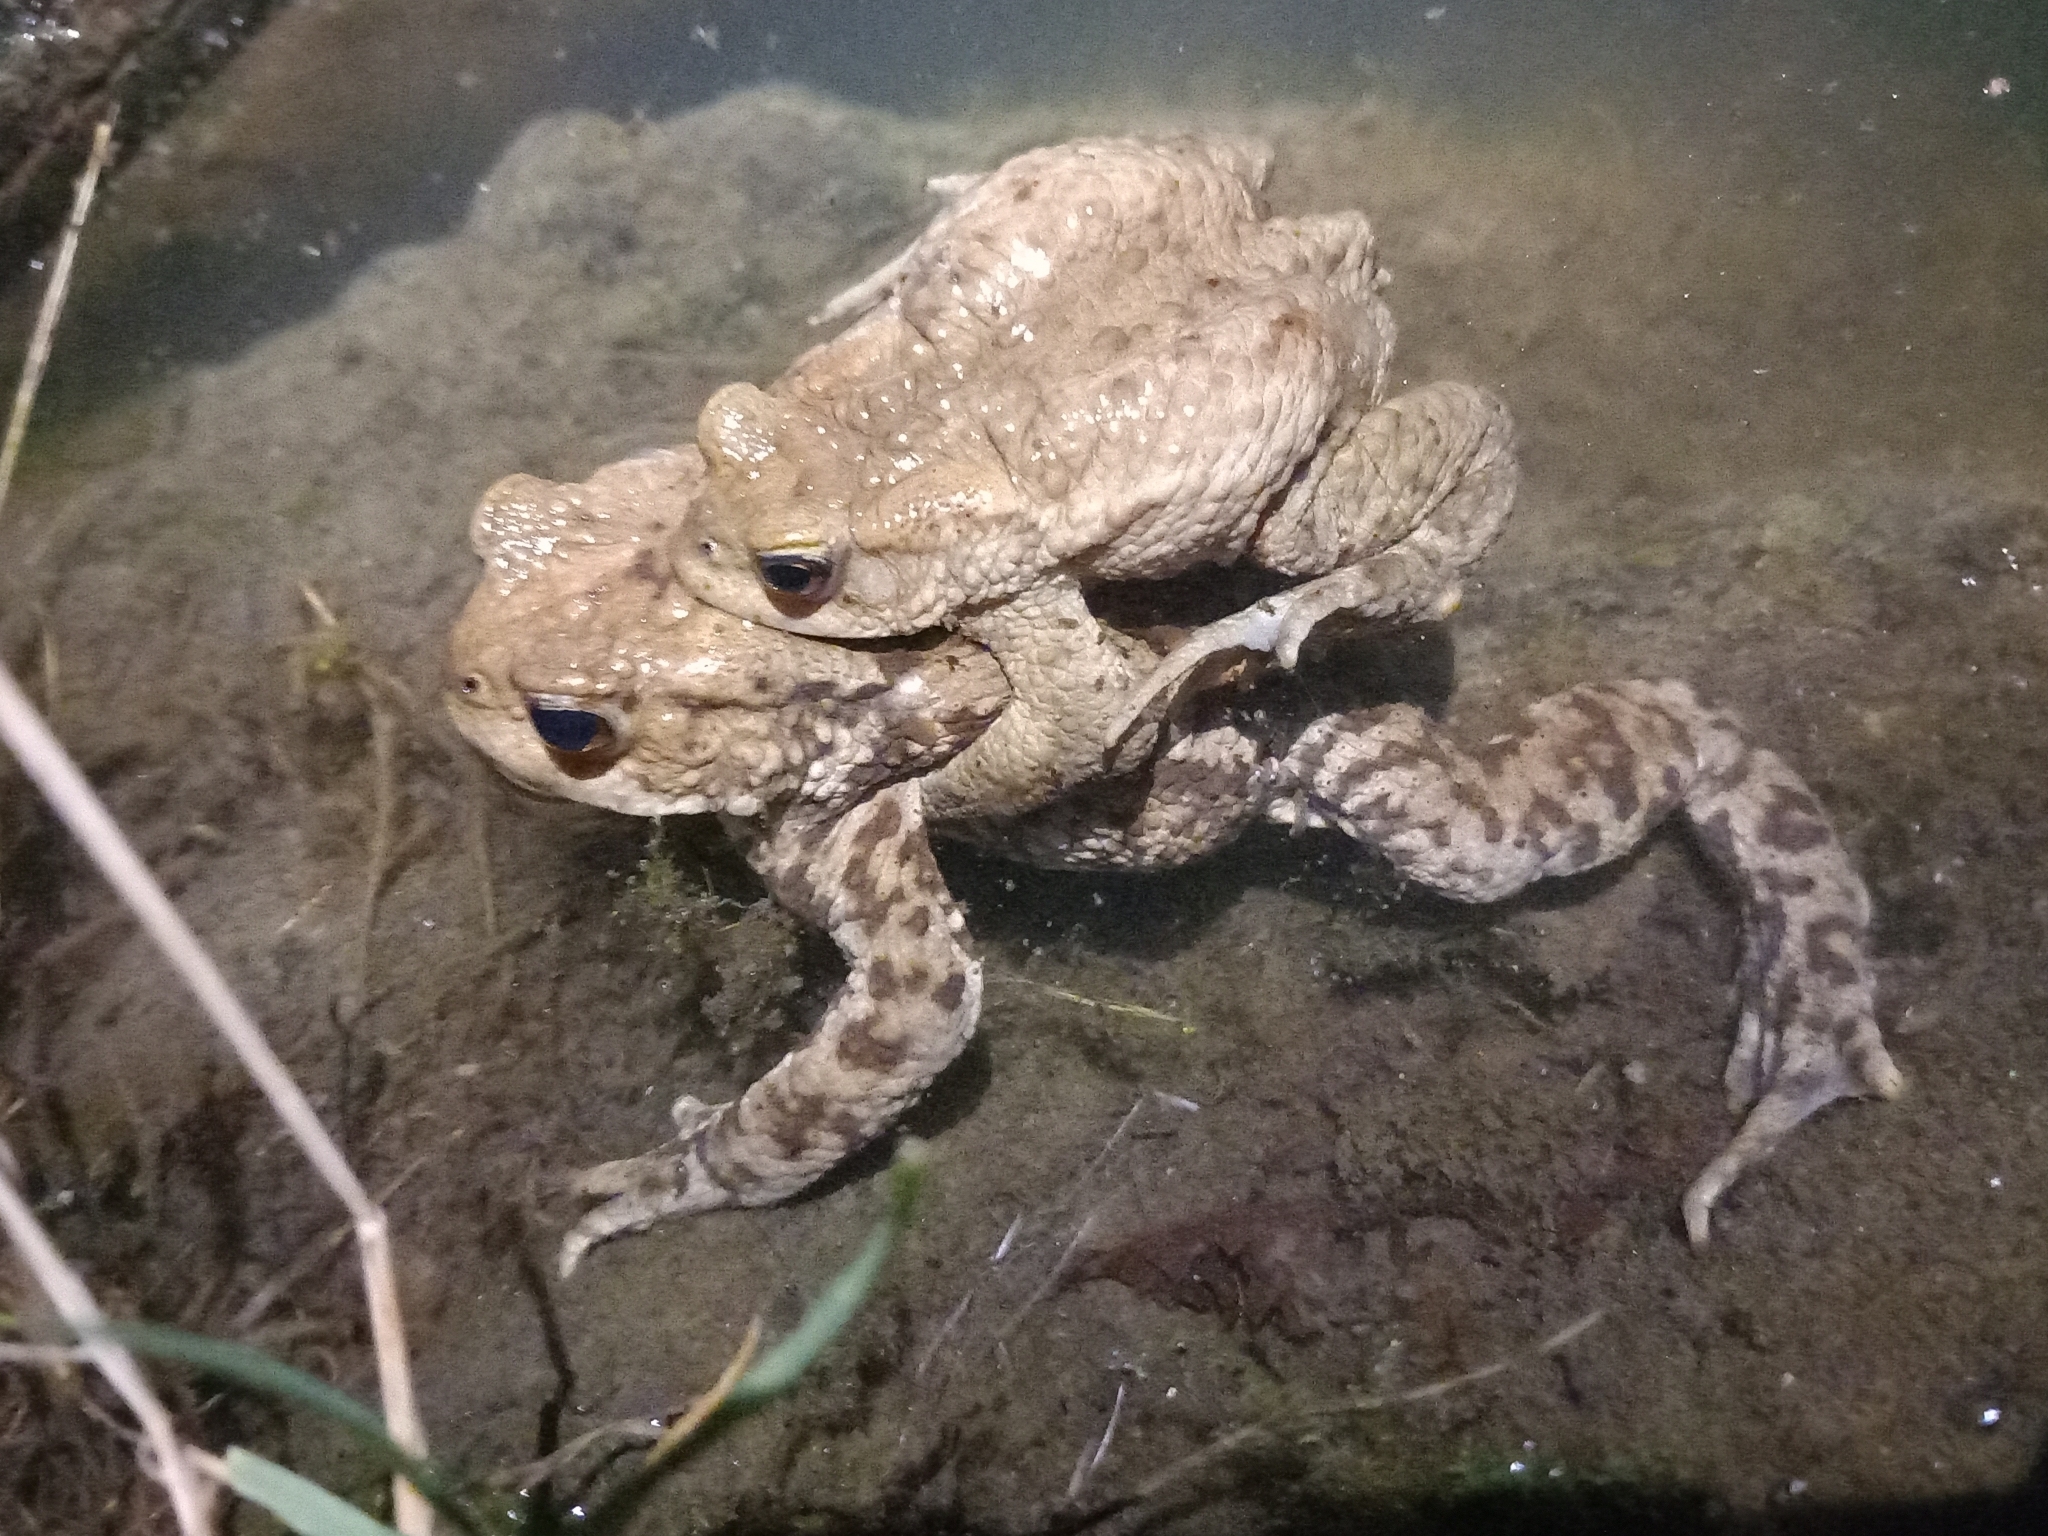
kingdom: Animalia
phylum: Chordata
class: Amphibia
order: Anura
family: Bufonidae
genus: Bufo
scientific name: Bufo bufo
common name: Common toad
